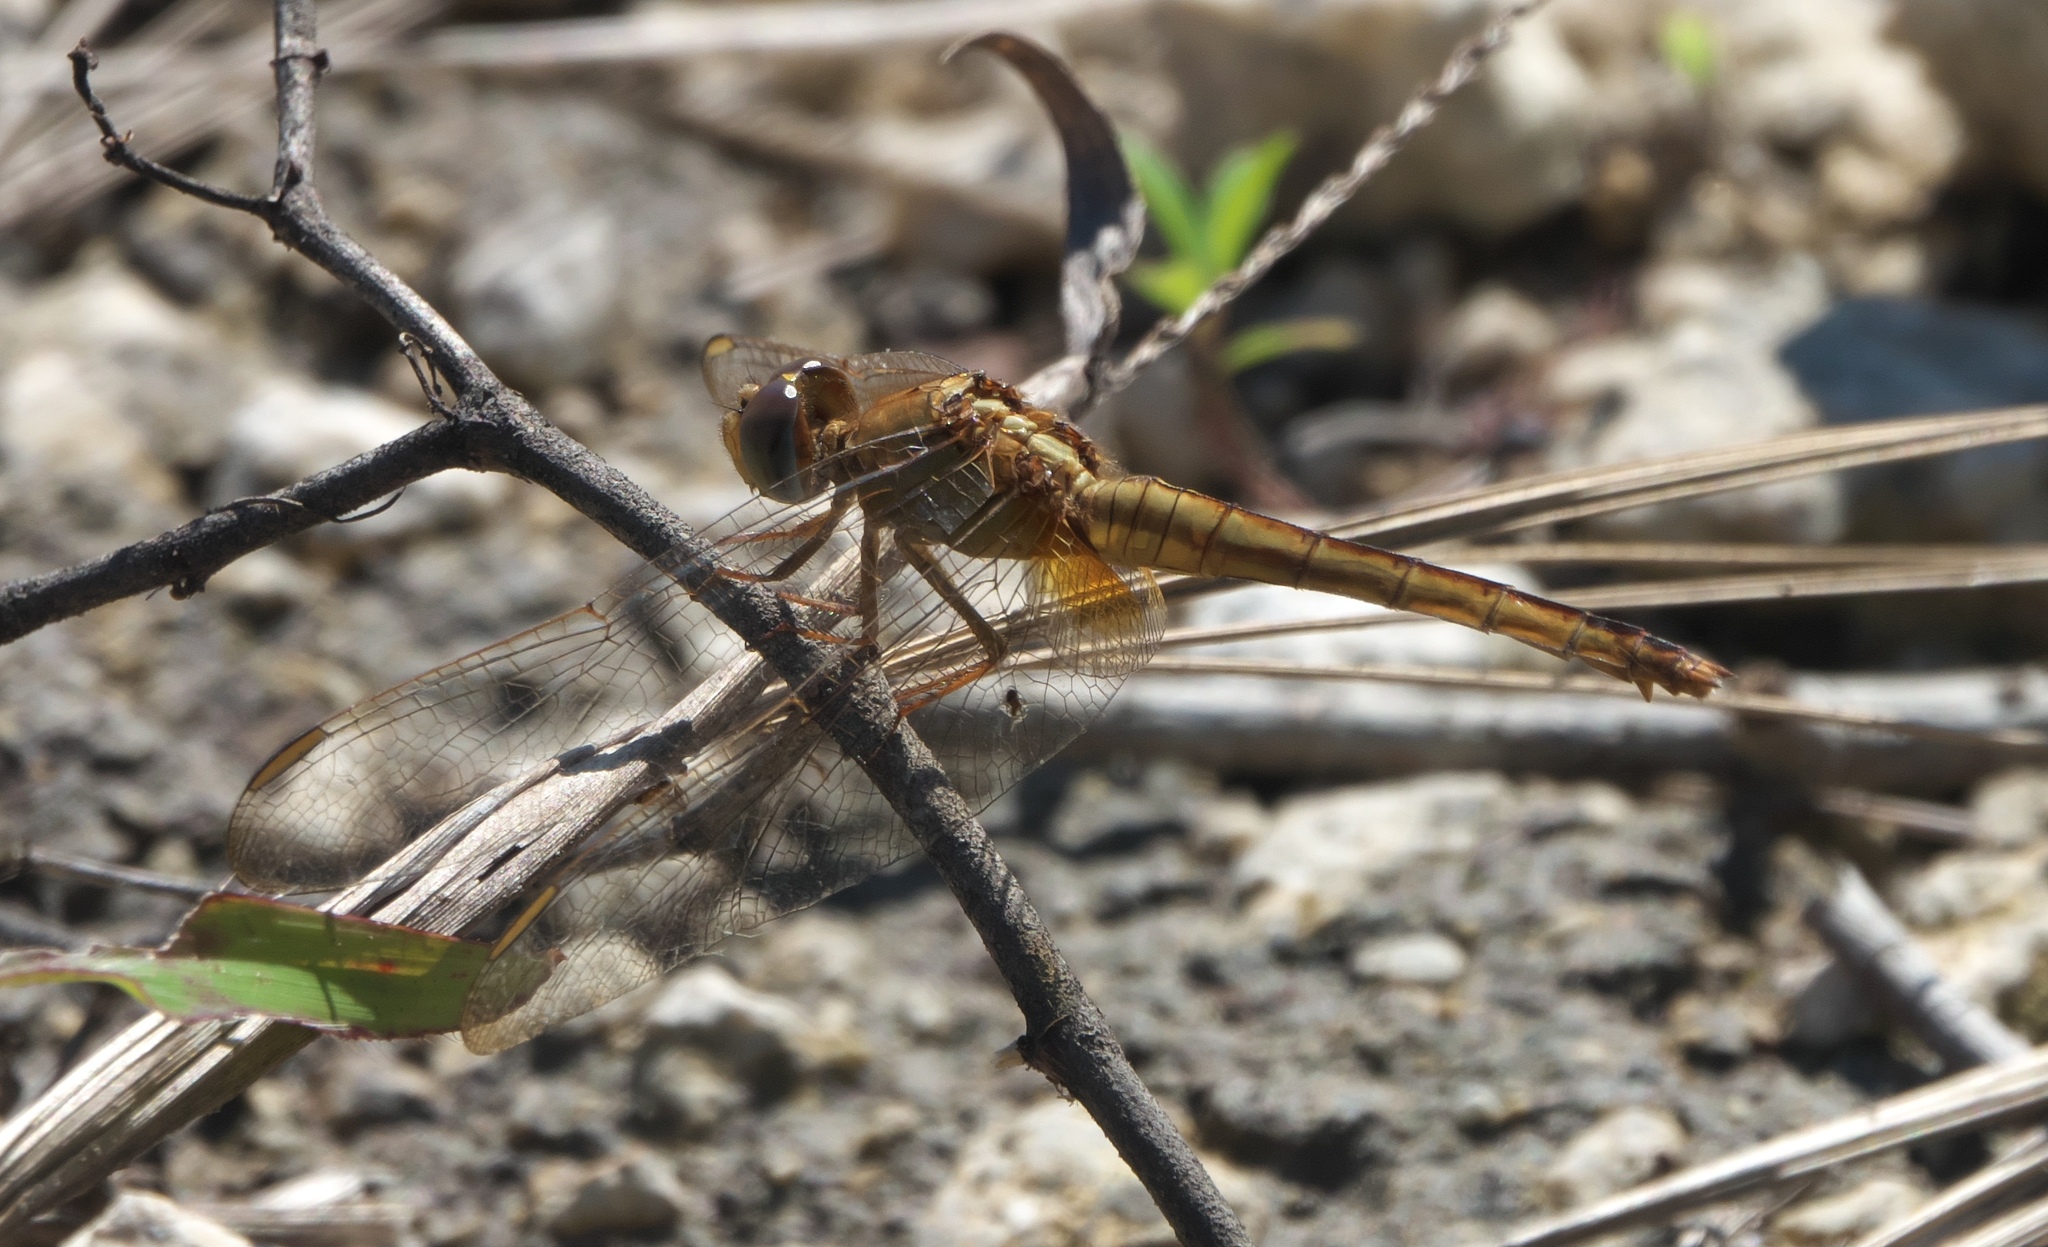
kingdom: Animalia
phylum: Arthropoda
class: Insecta
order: Odonata
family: Libellulidae
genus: Crocothemis
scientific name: Crocothemis servilia
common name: Scarlet skimmer
